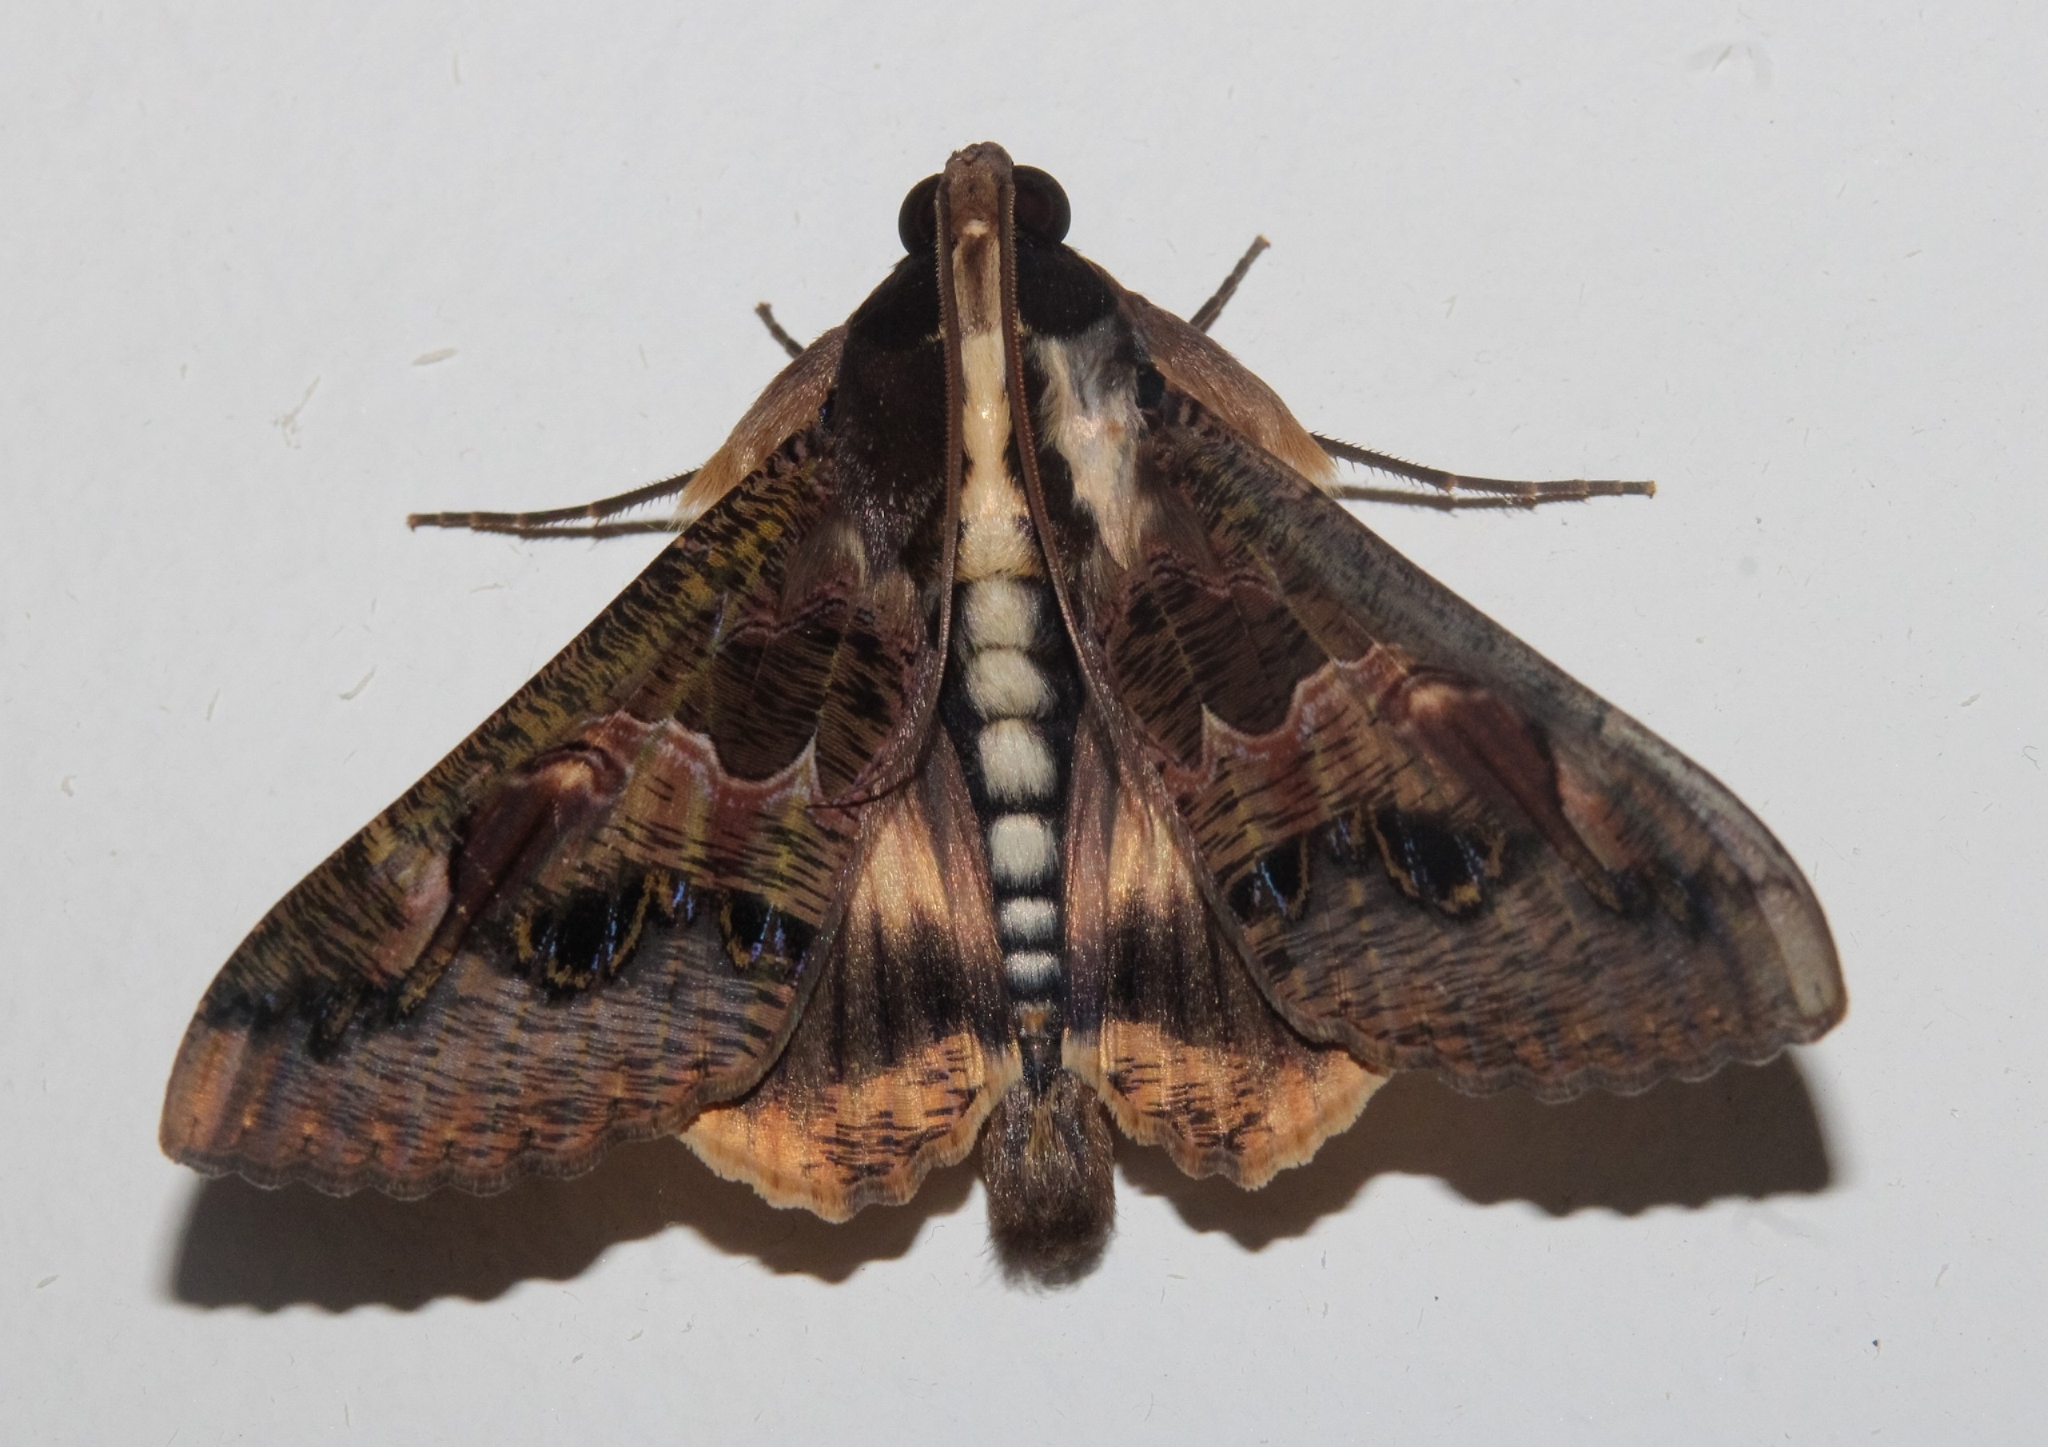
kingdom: Animalia
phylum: Arthropoda
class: Insecta
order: Lepidoptera
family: Erebidae
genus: Sphingomorpha
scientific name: Sphingomorpha chlorea
